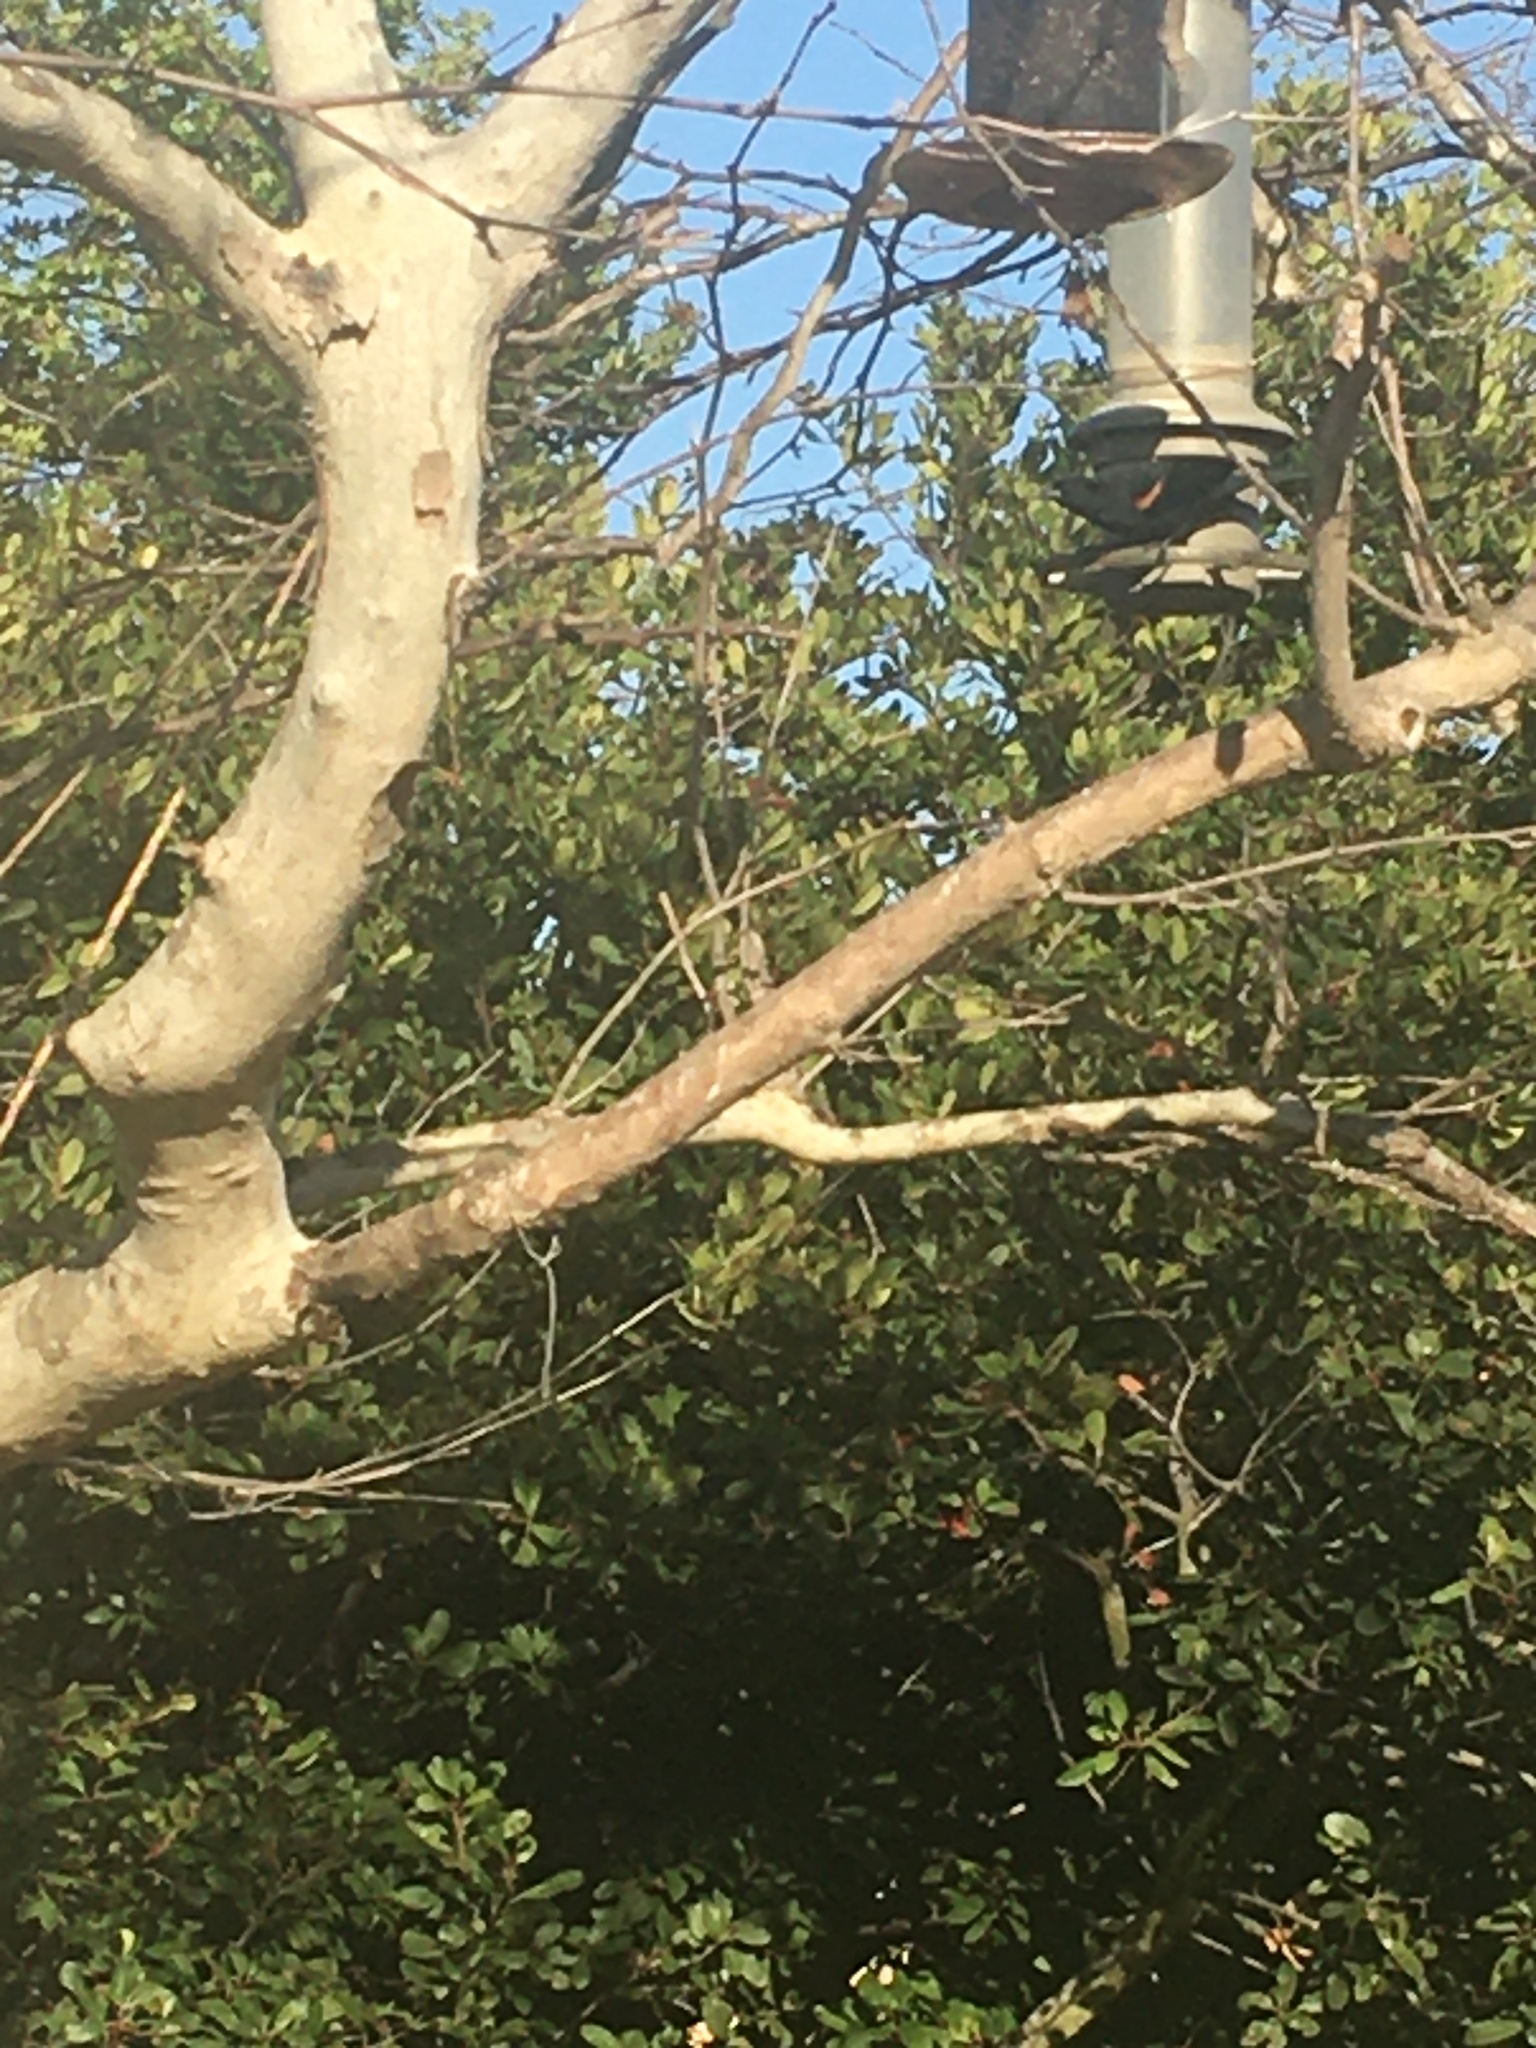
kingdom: Animalia
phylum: Chordata
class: Aves
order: Passeriformes
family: Icteridae
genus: Agelaius
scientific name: Agelaius phoeniceus
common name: Red-winged blackbird
